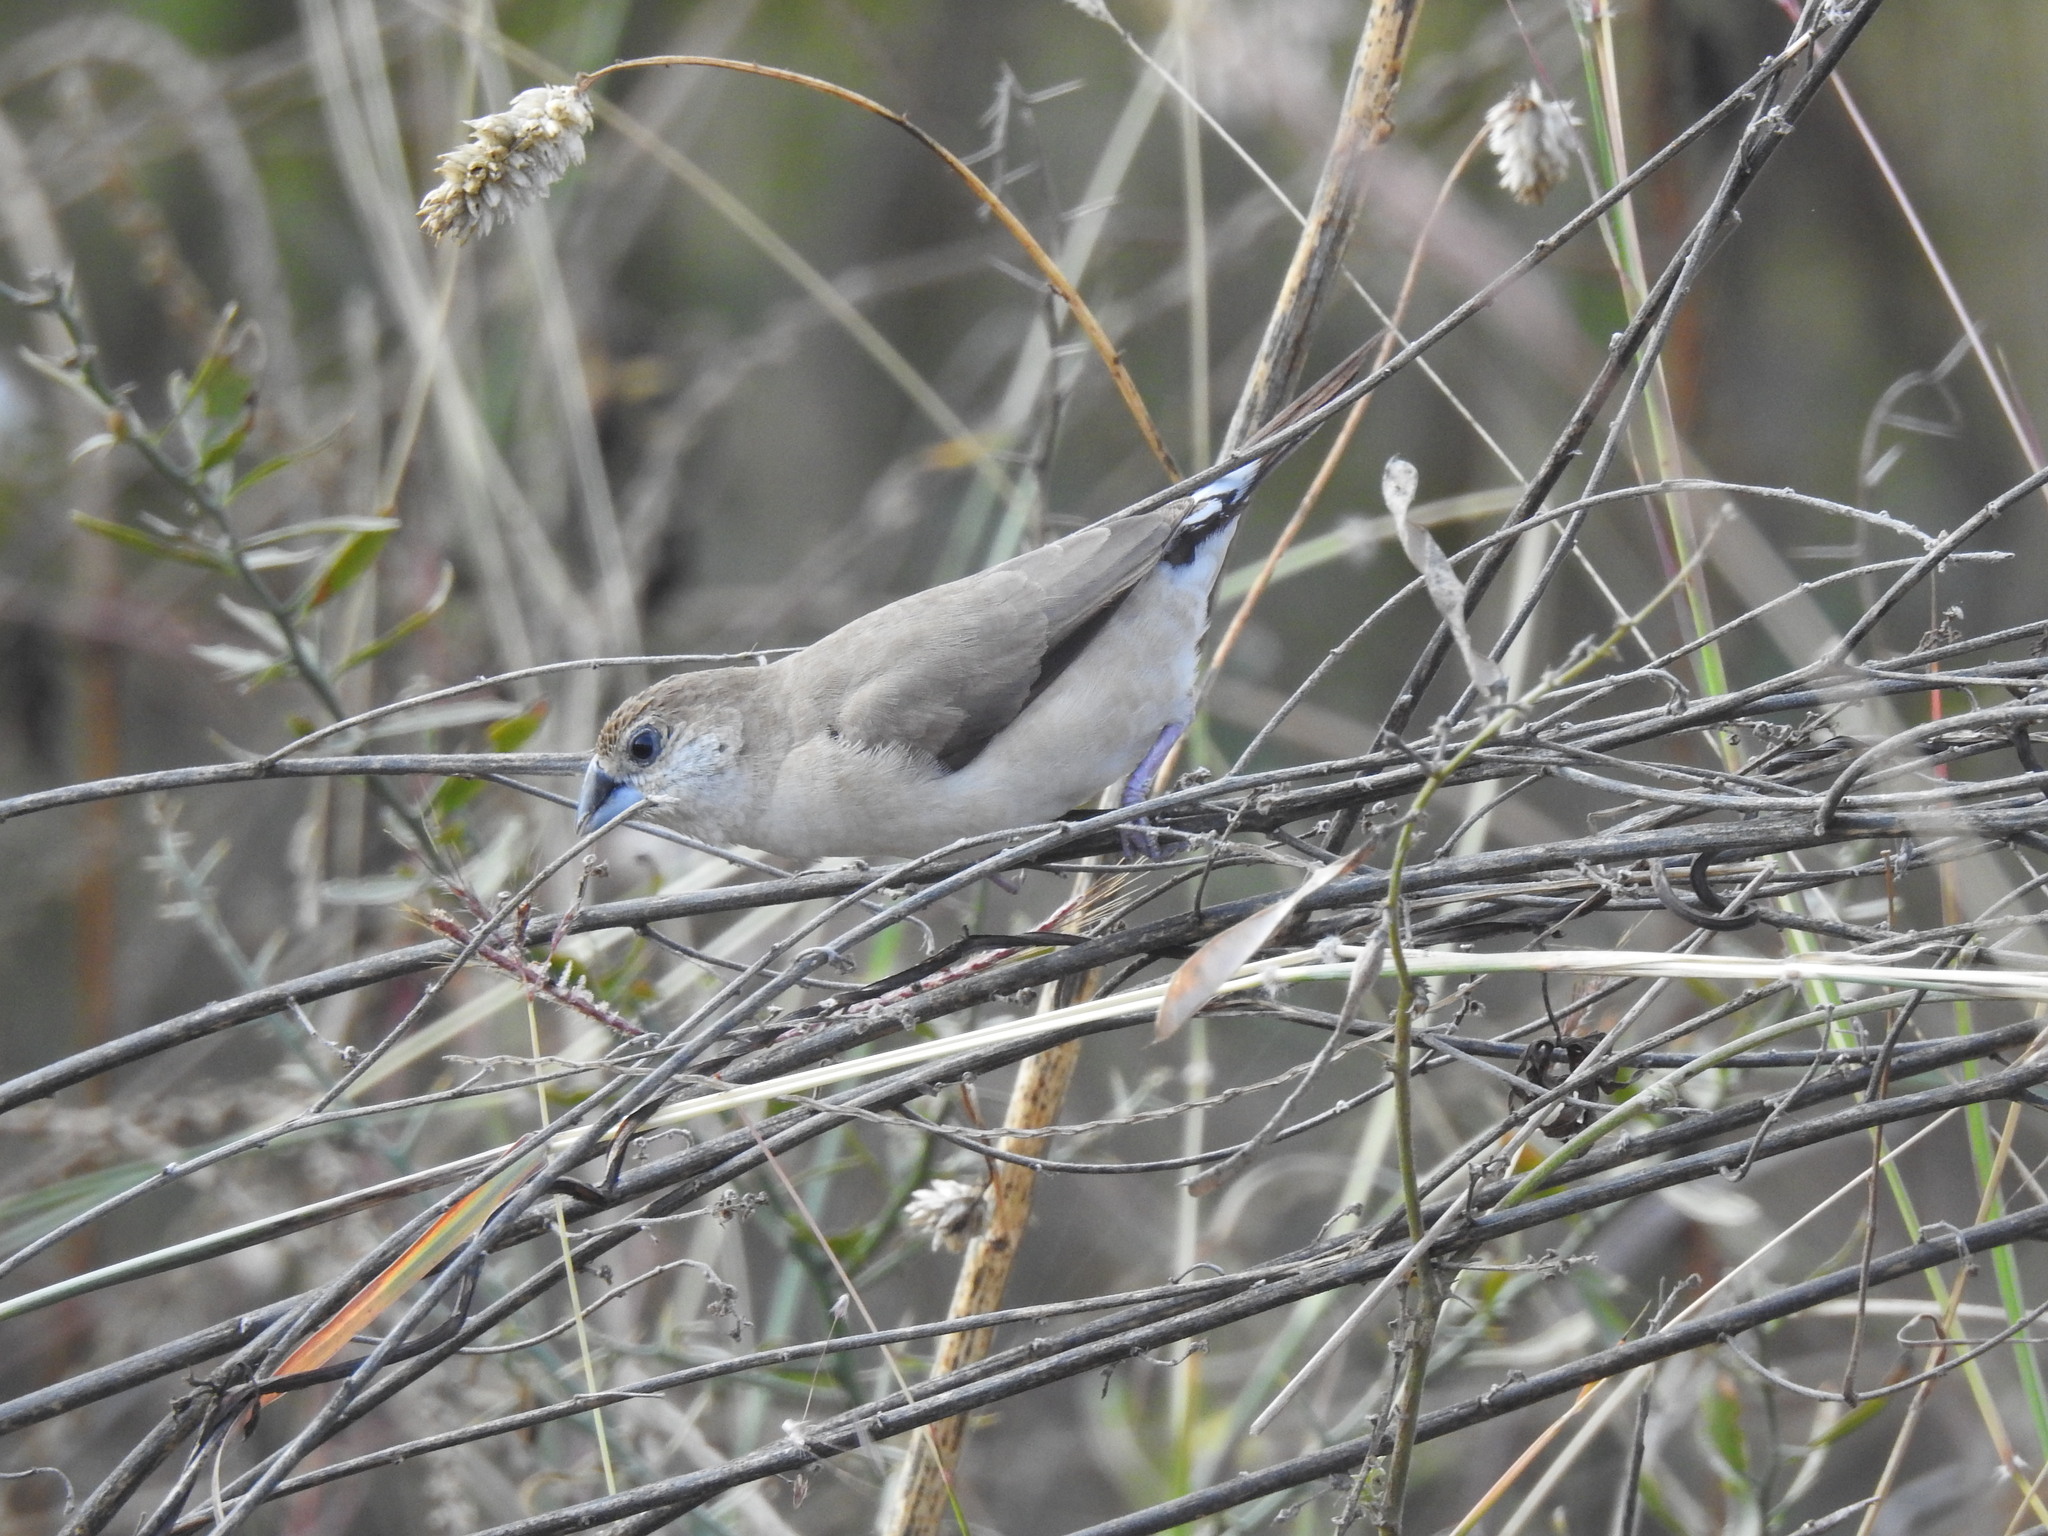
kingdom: Animalia
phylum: Chordata
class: Aves
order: Passeriformes
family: Estrildidae
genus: Euodice
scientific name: Euodice malabarica
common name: Indian silverbill
